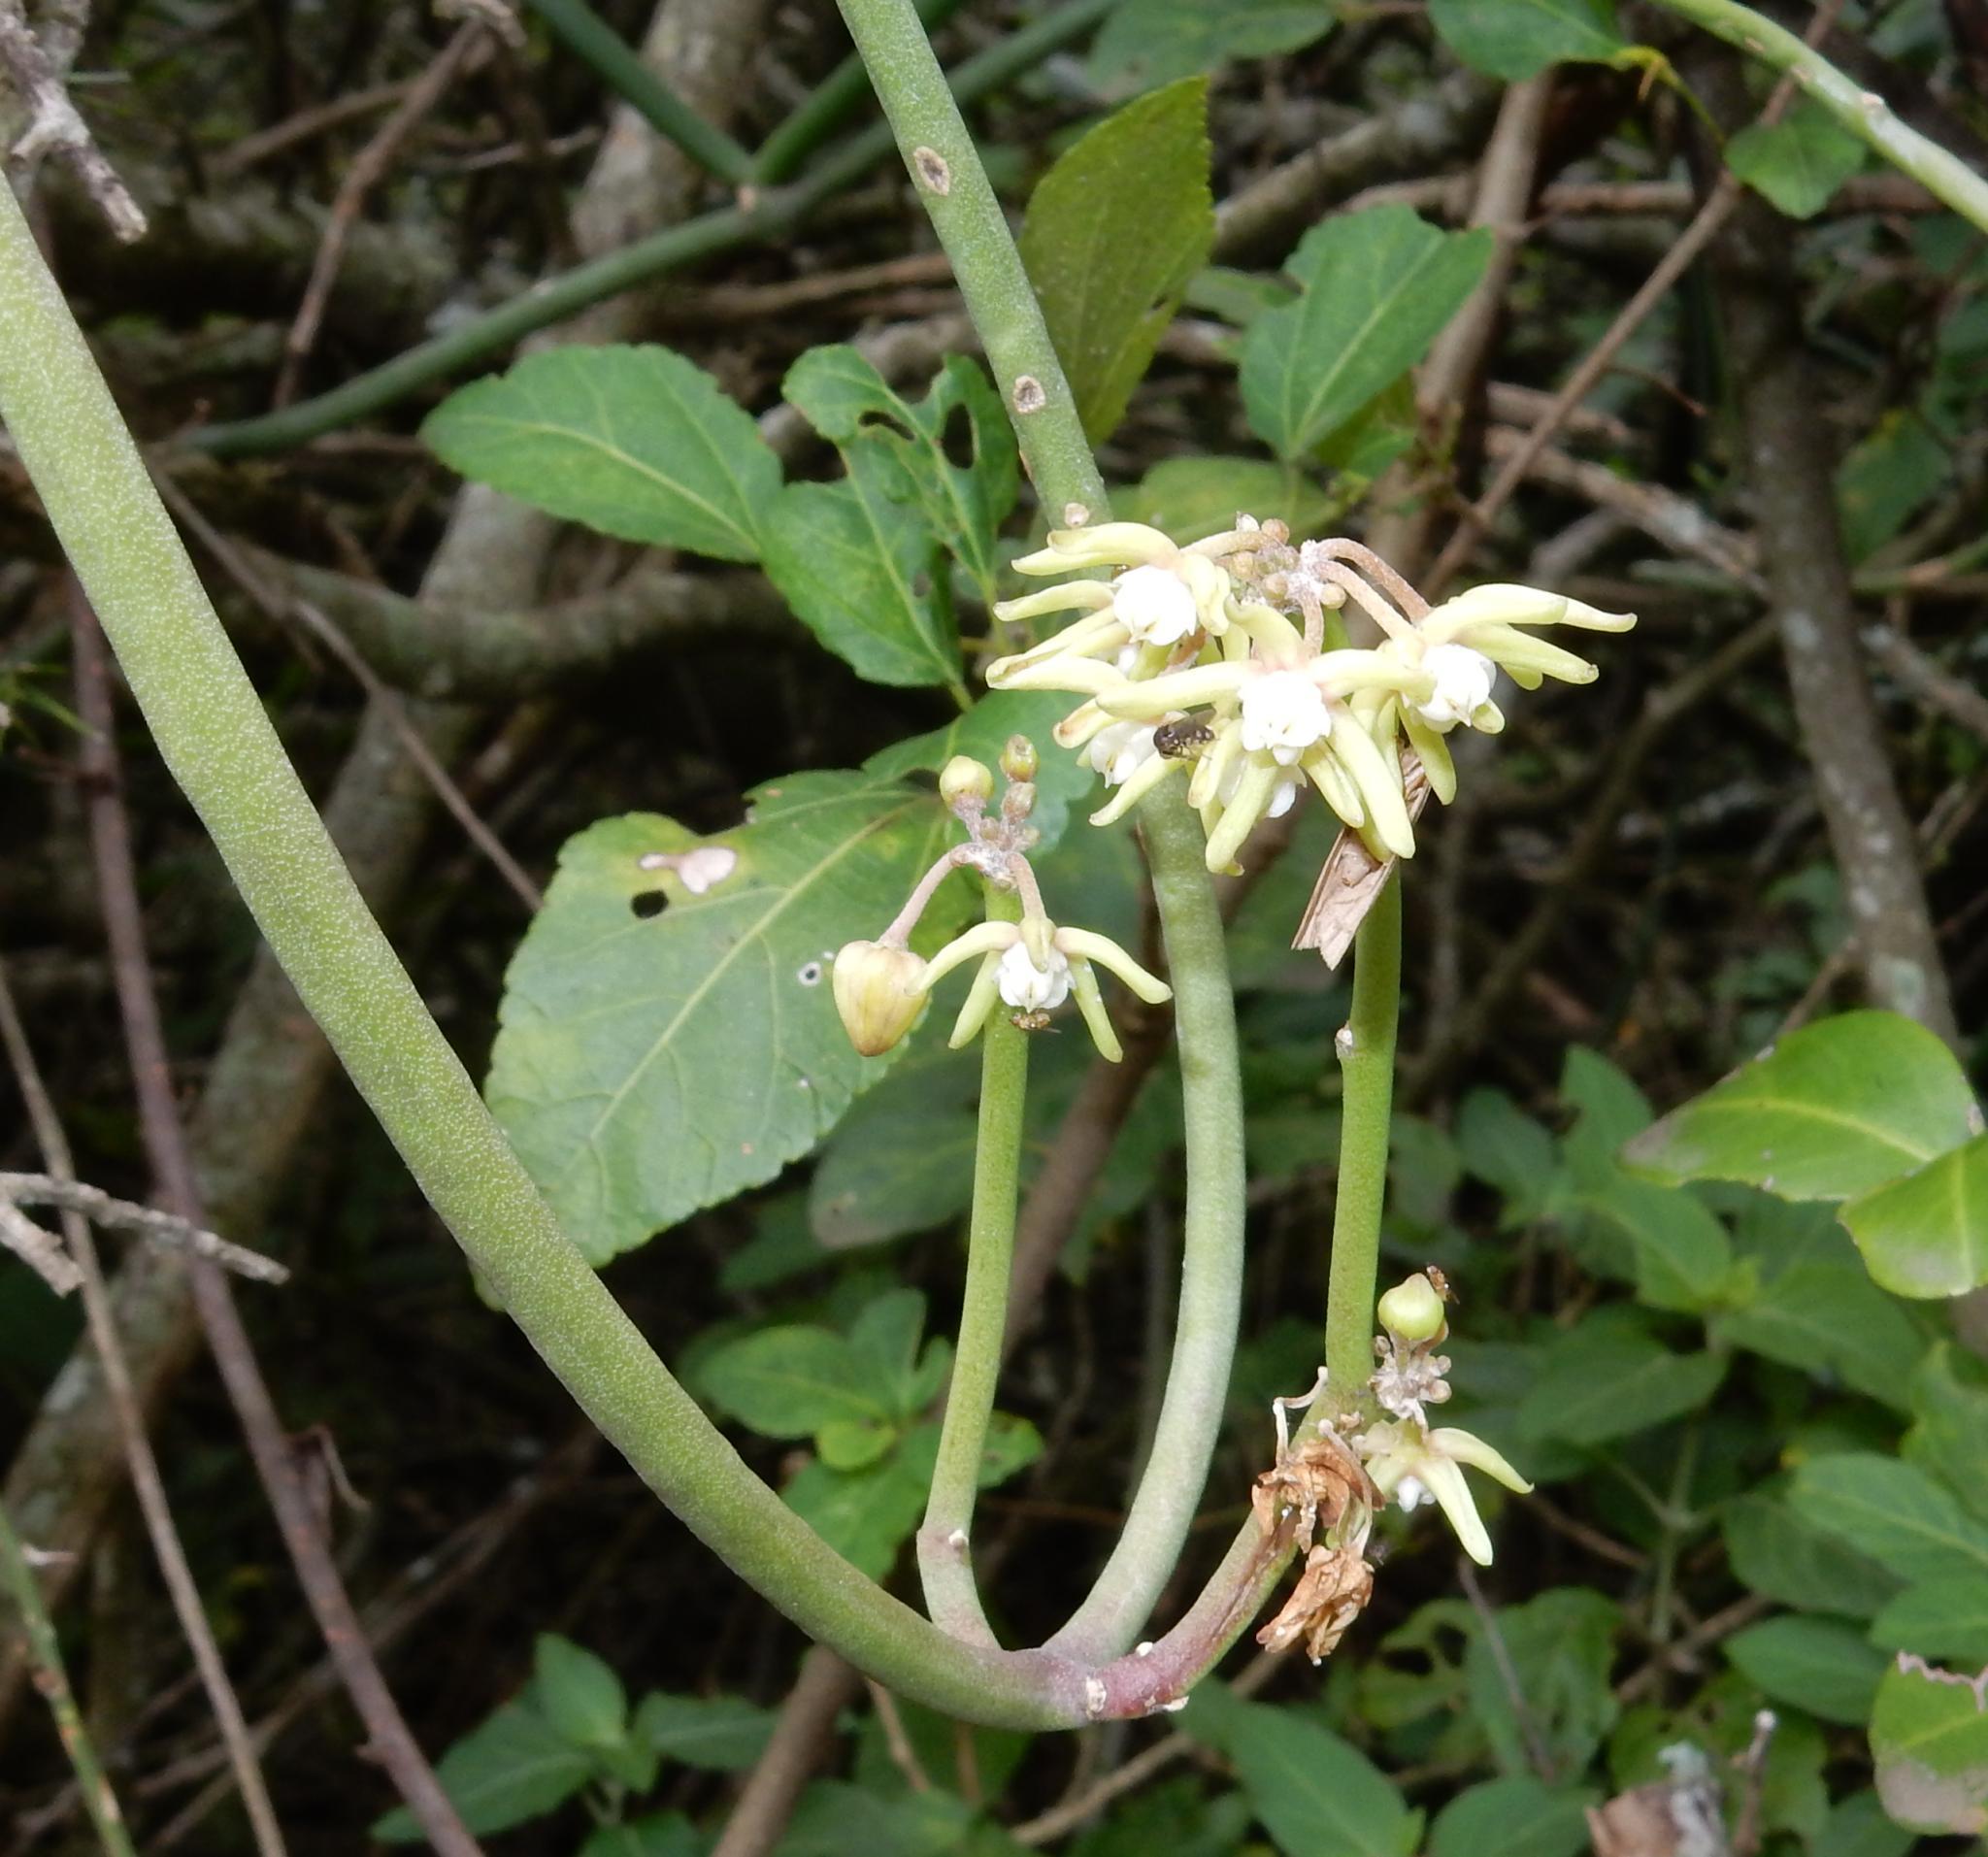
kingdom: Plantae
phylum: Tracheophyta
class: Magnoliopsida
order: Gentianales
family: Apocynaceae
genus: Cynanchum
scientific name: Cynanchum viminale
